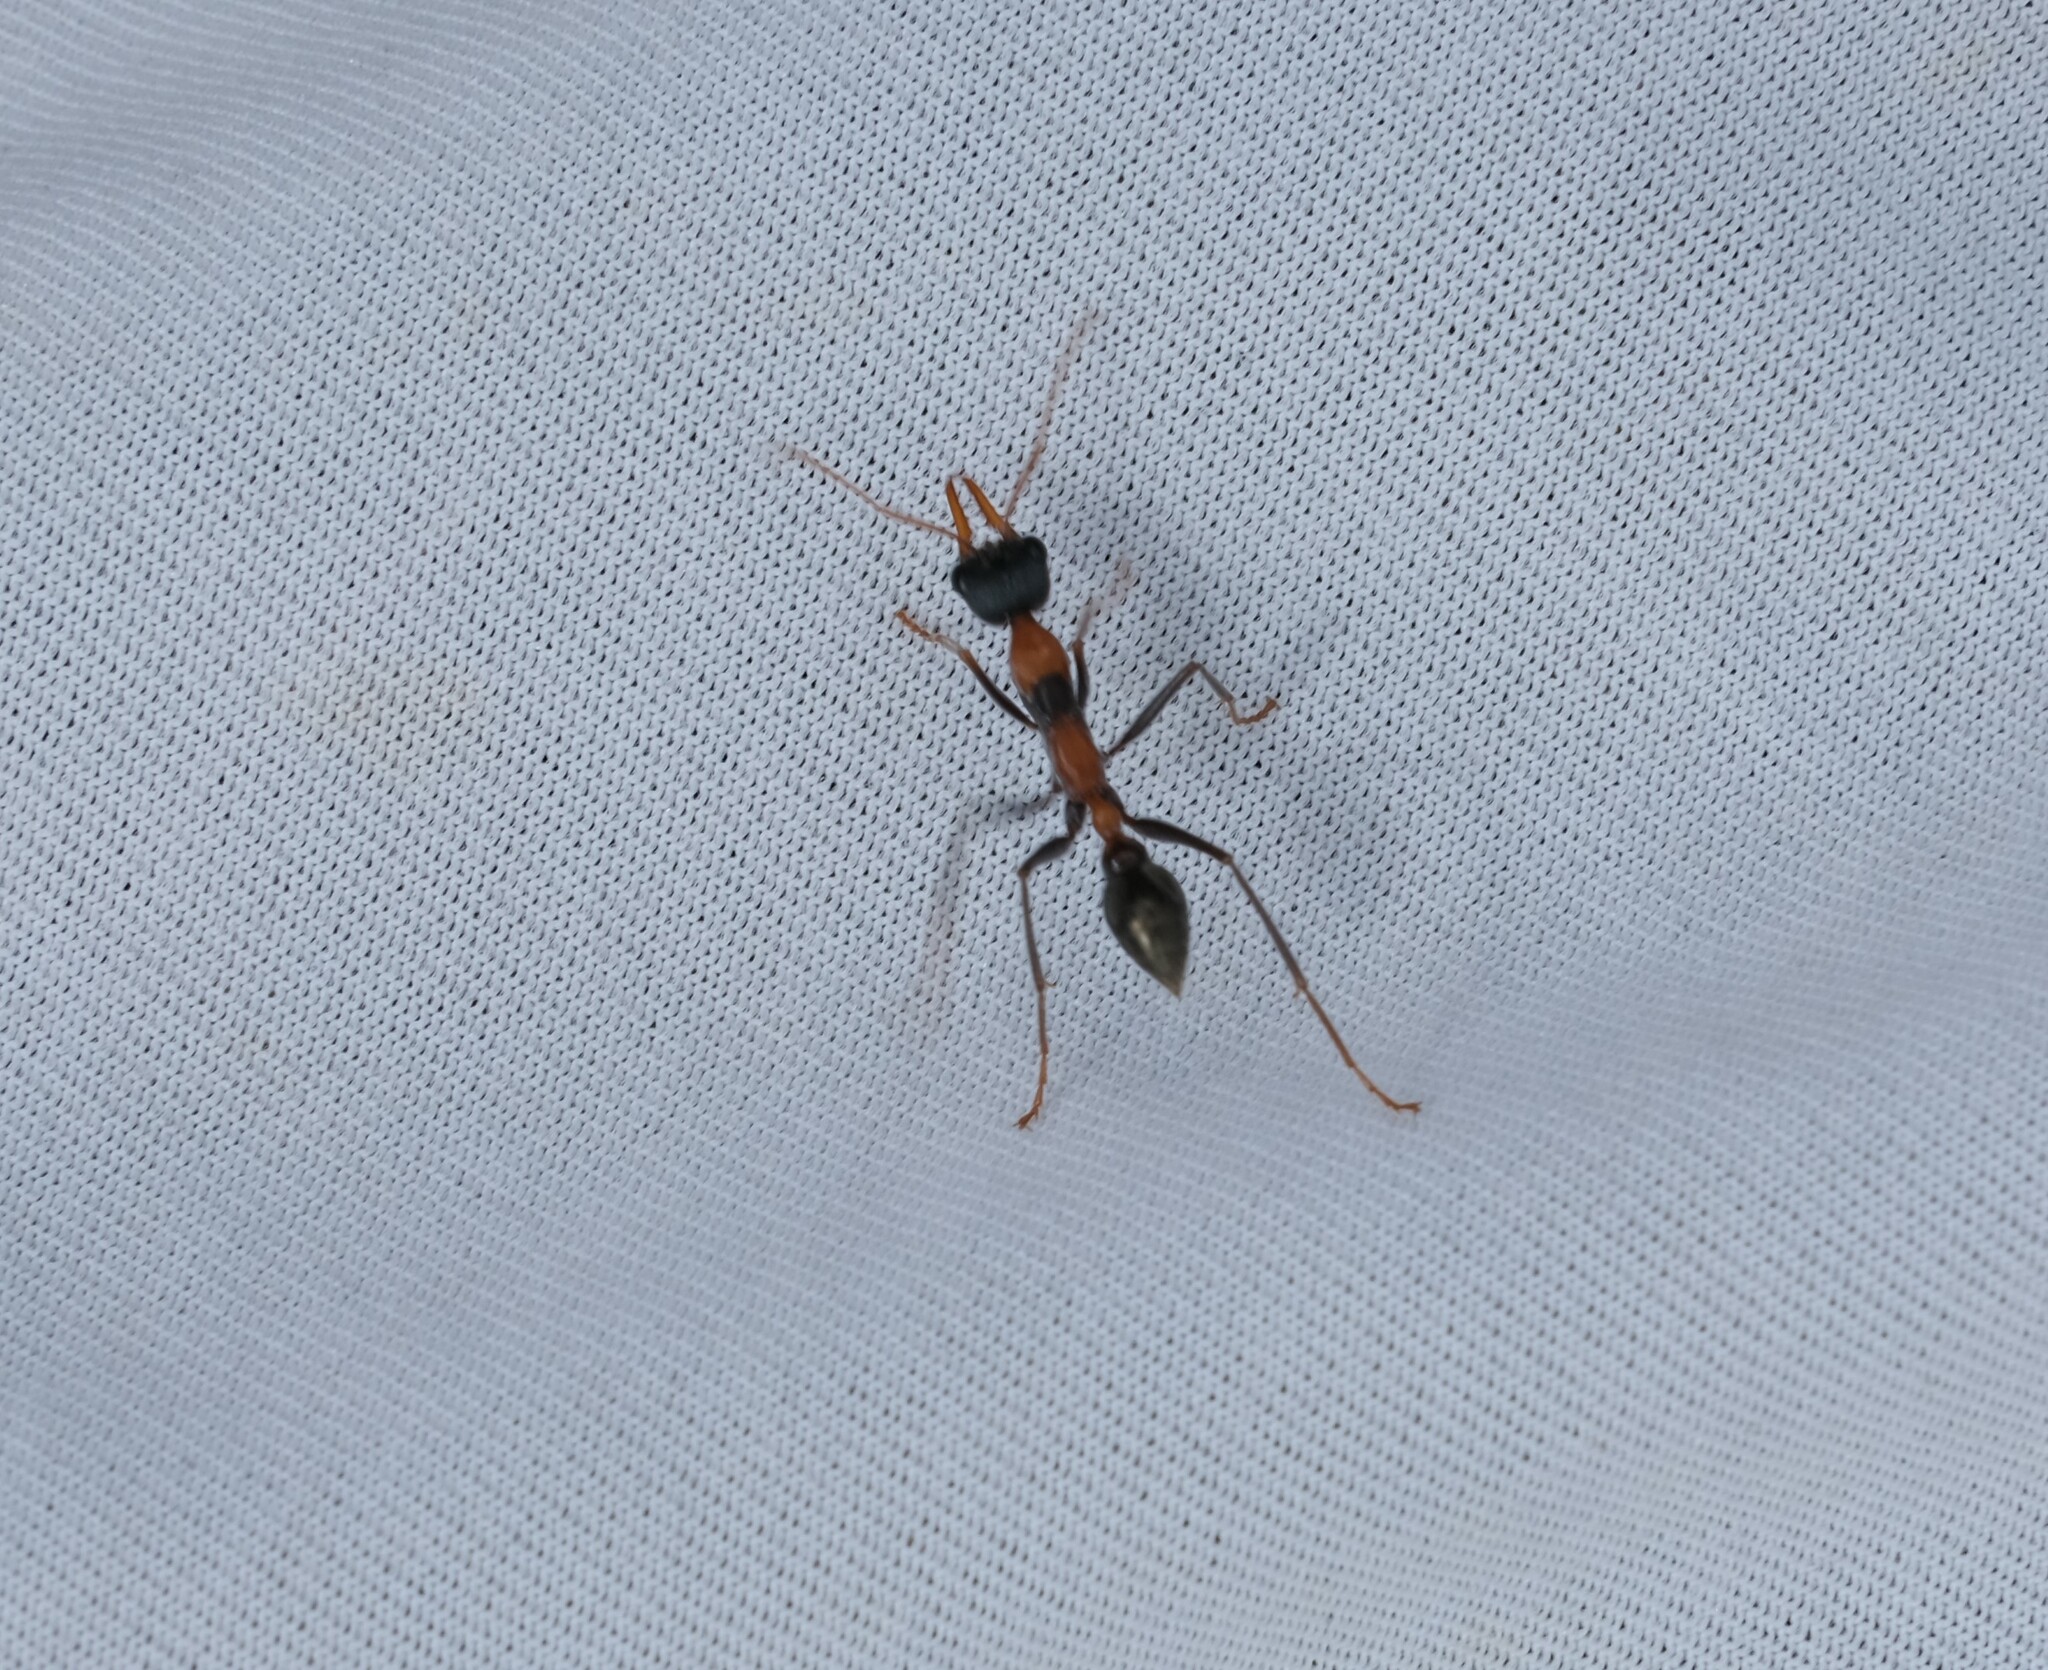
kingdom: Animalia
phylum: Arthropoda
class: Insecta
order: Hymenoptera
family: Formicidae
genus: Myrmecia
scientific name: Myrmecia nigrocincta
